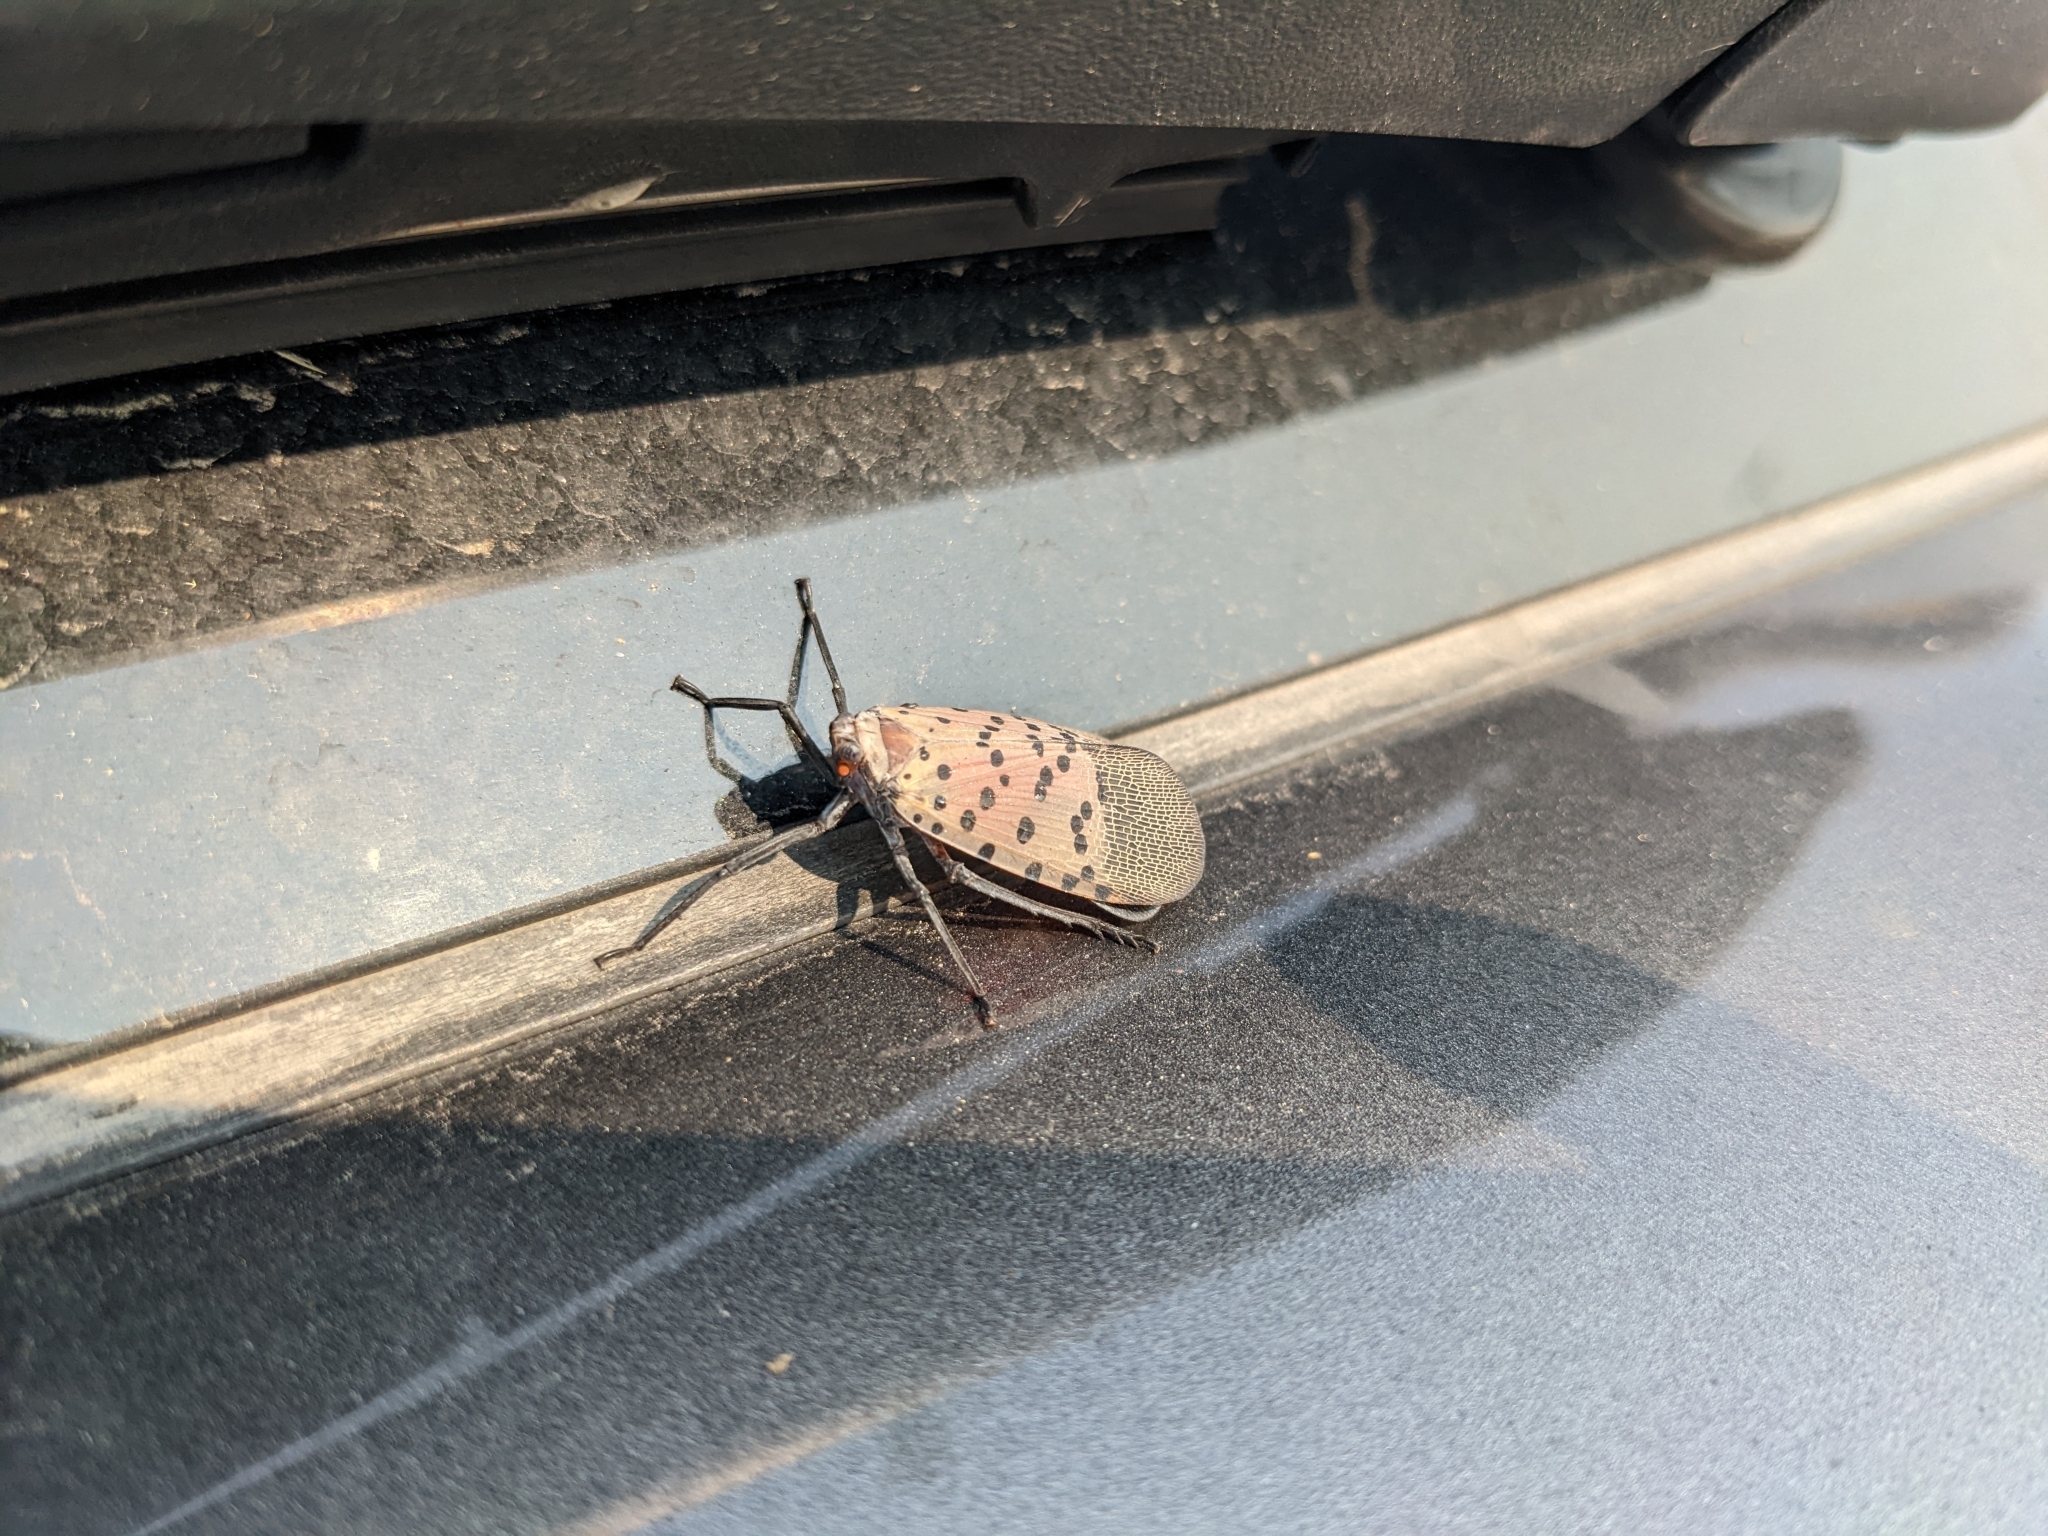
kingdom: Animalia
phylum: Arthropoda
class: Insecta
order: Hemiptera
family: Fulgoridae
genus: Lycorma
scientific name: Lycorma delicatula
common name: Spotted lanternfly
